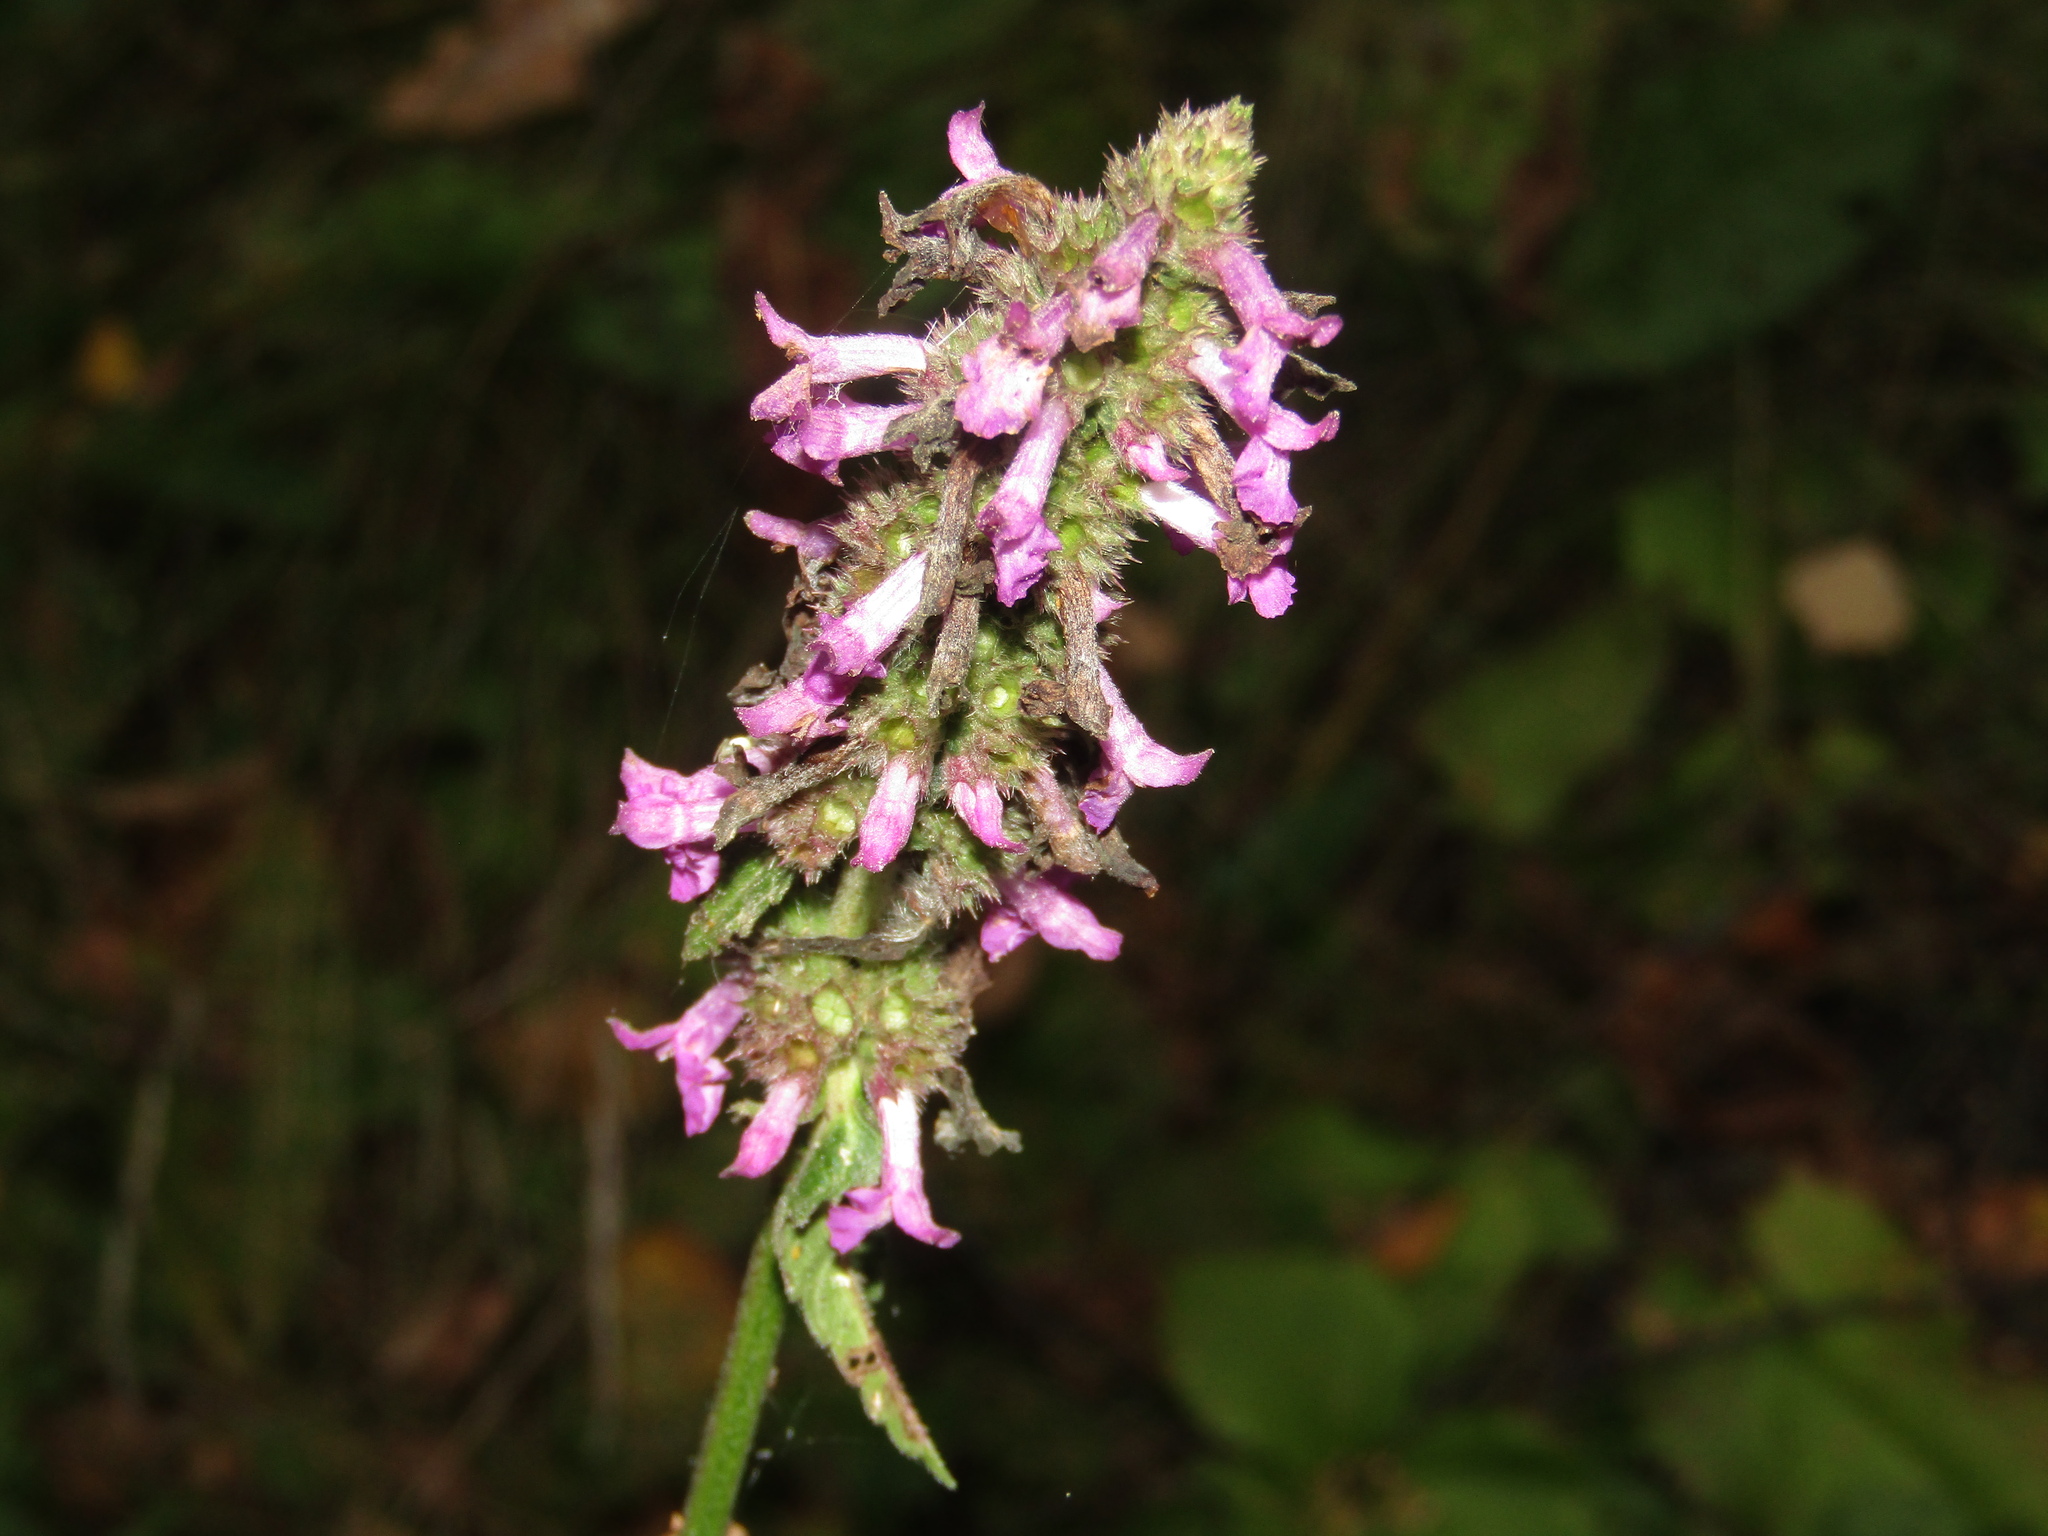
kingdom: Plantae
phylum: Tracheophyta
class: Magnoliopsida
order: Lamiales
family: Lamiaceae
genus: Betonica
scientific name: Betonica officinalis
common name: Bishop's-wort
